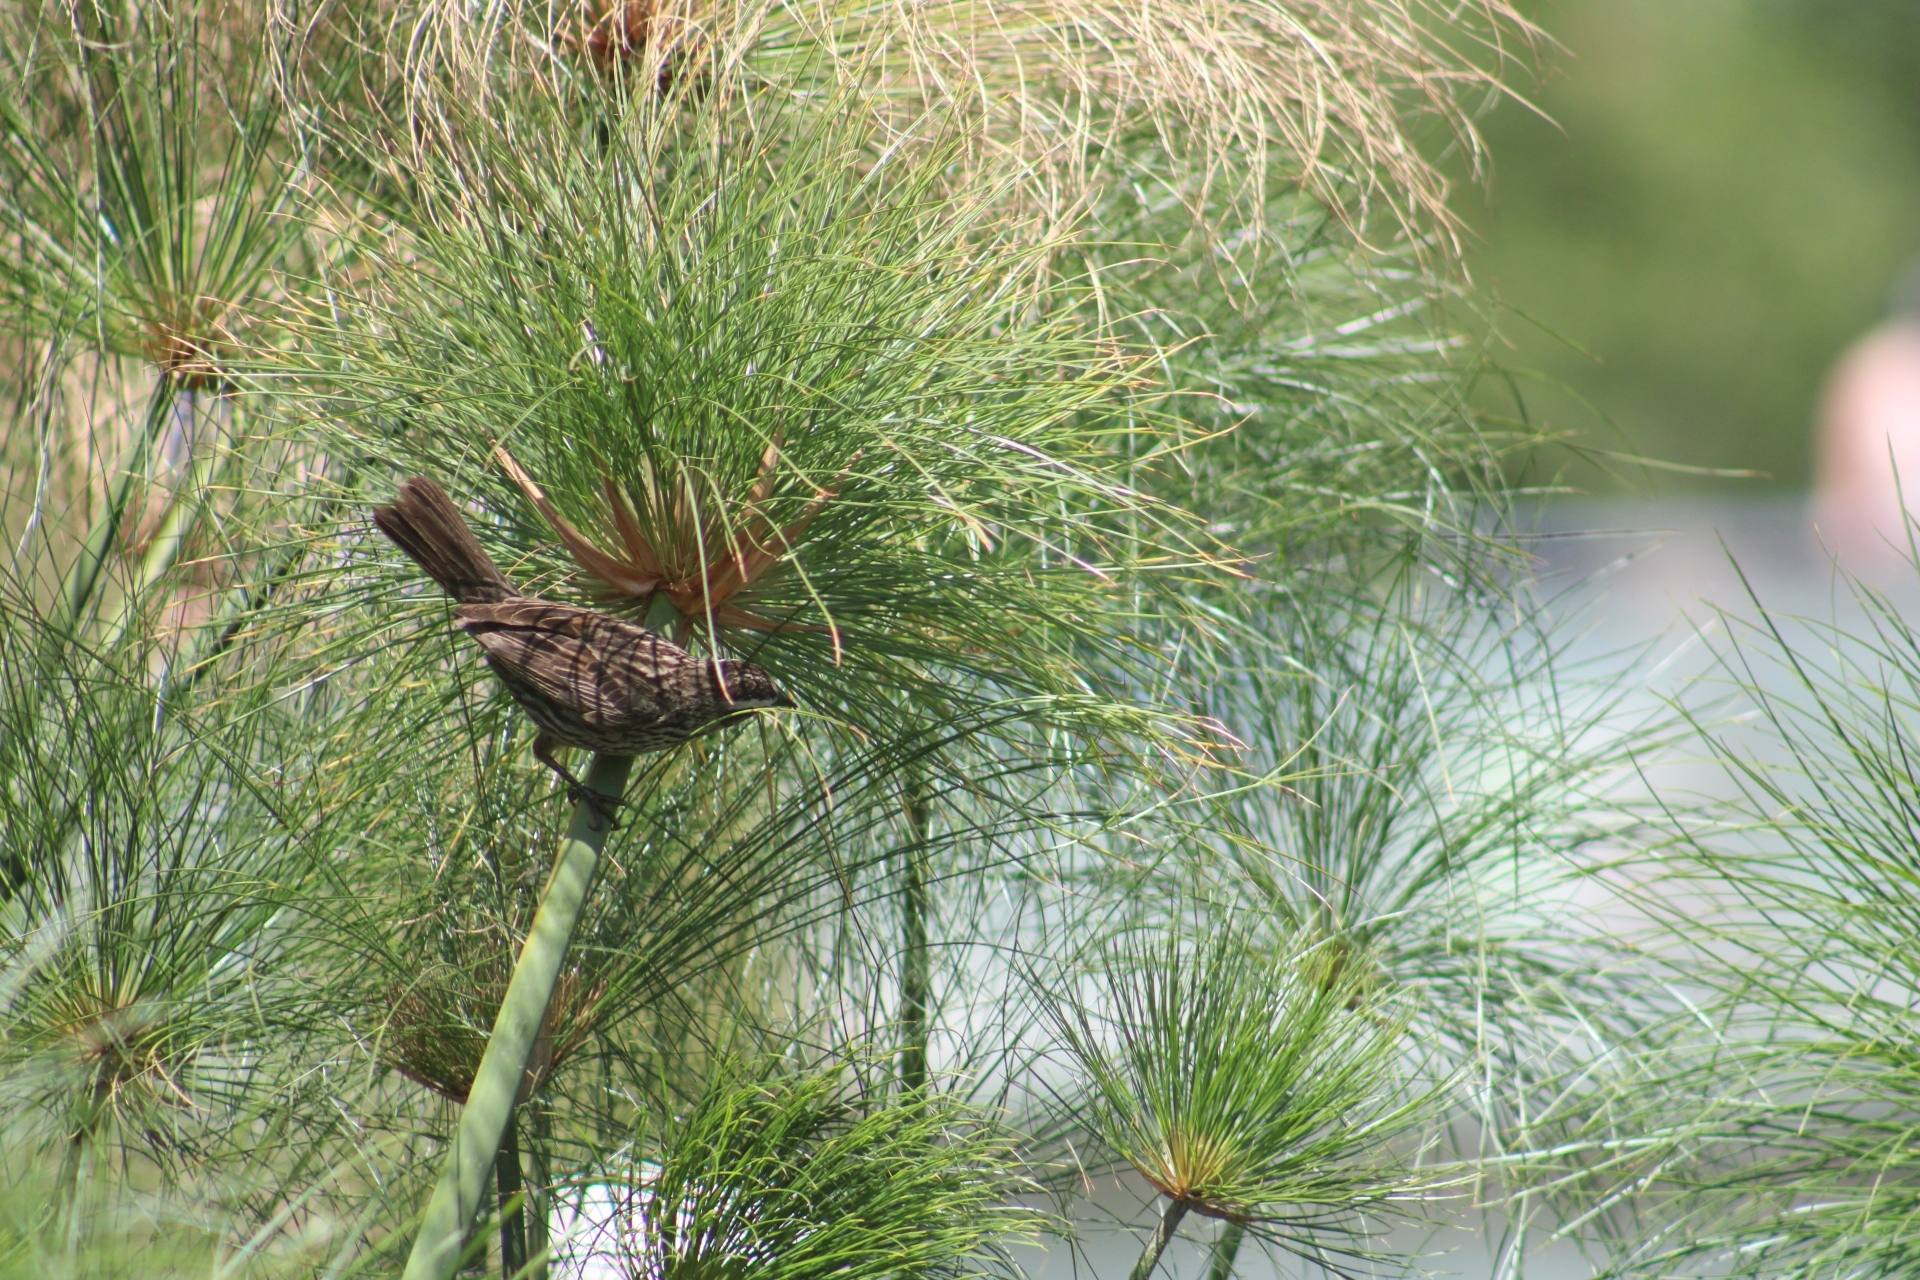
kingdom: Animalia
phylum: Chordata
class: Aves
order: Passeriformes
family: Icteridae
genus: Agelasticus
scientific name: Agelasticus thilius
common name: Yellow-winged blackbird
